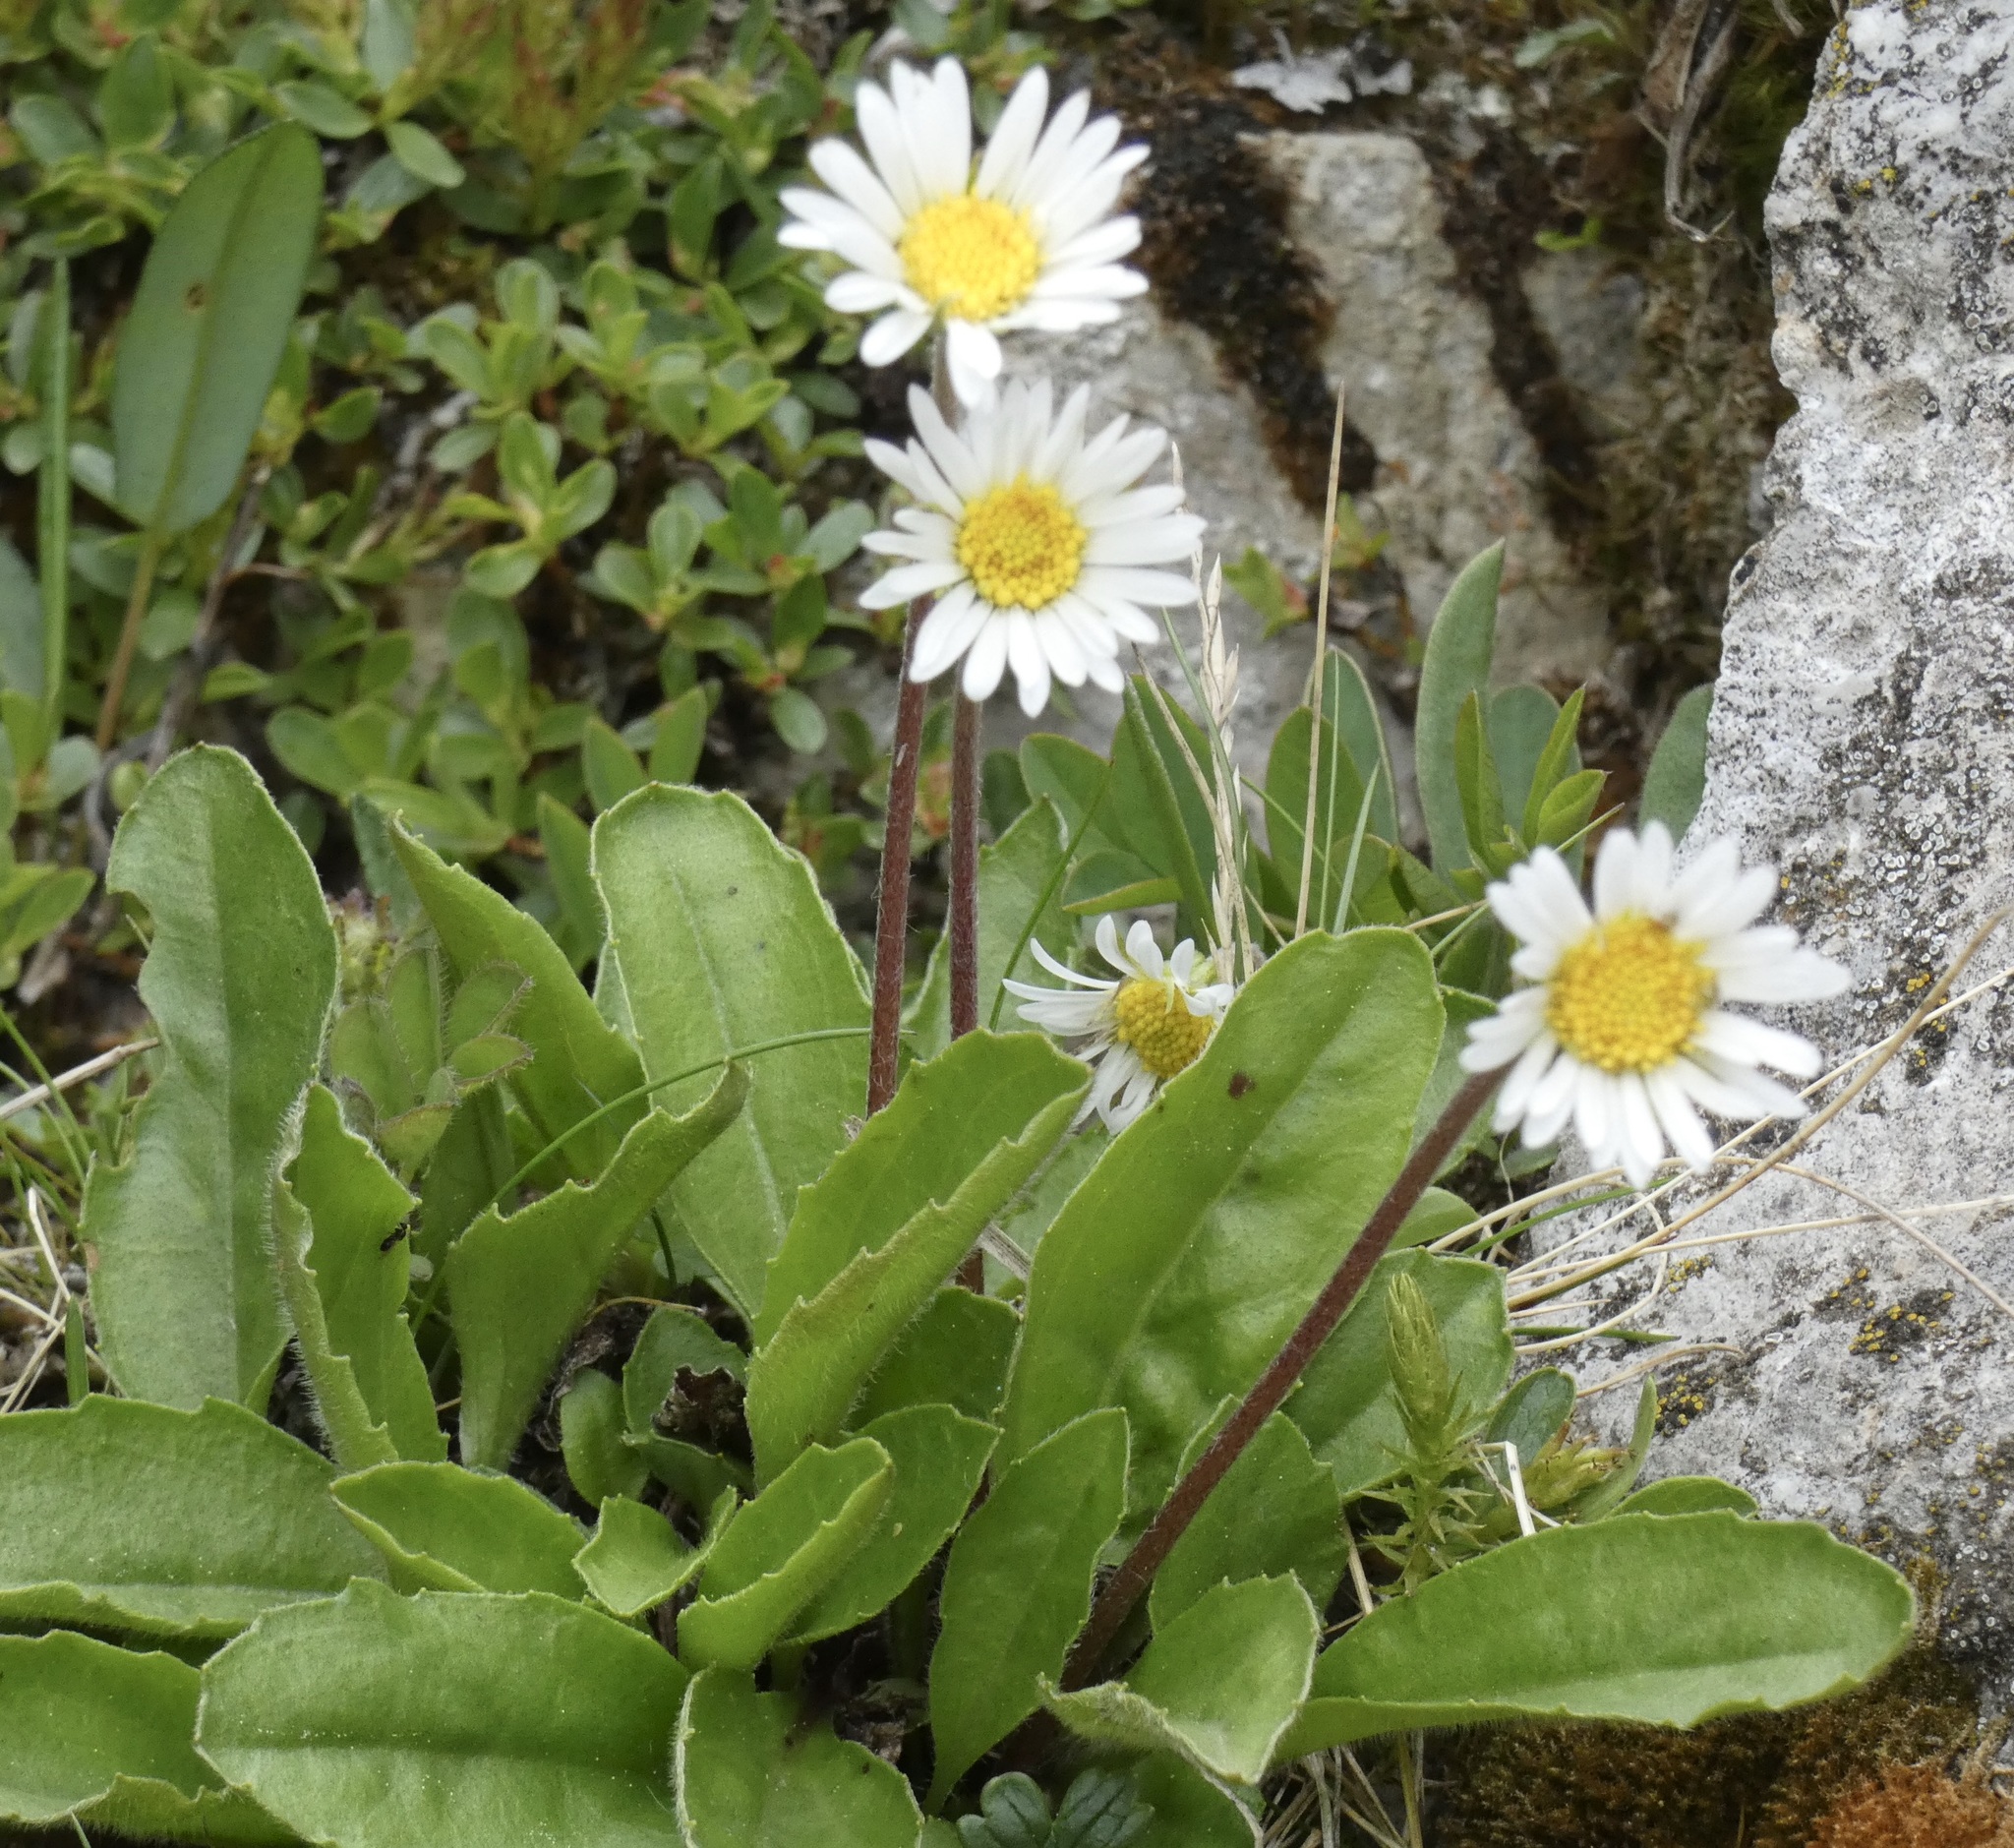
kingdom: Plantae
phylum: Tracheophyta
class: Magnoliopsida
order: Asterales
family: Asteraceae
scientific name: Asteraceae
